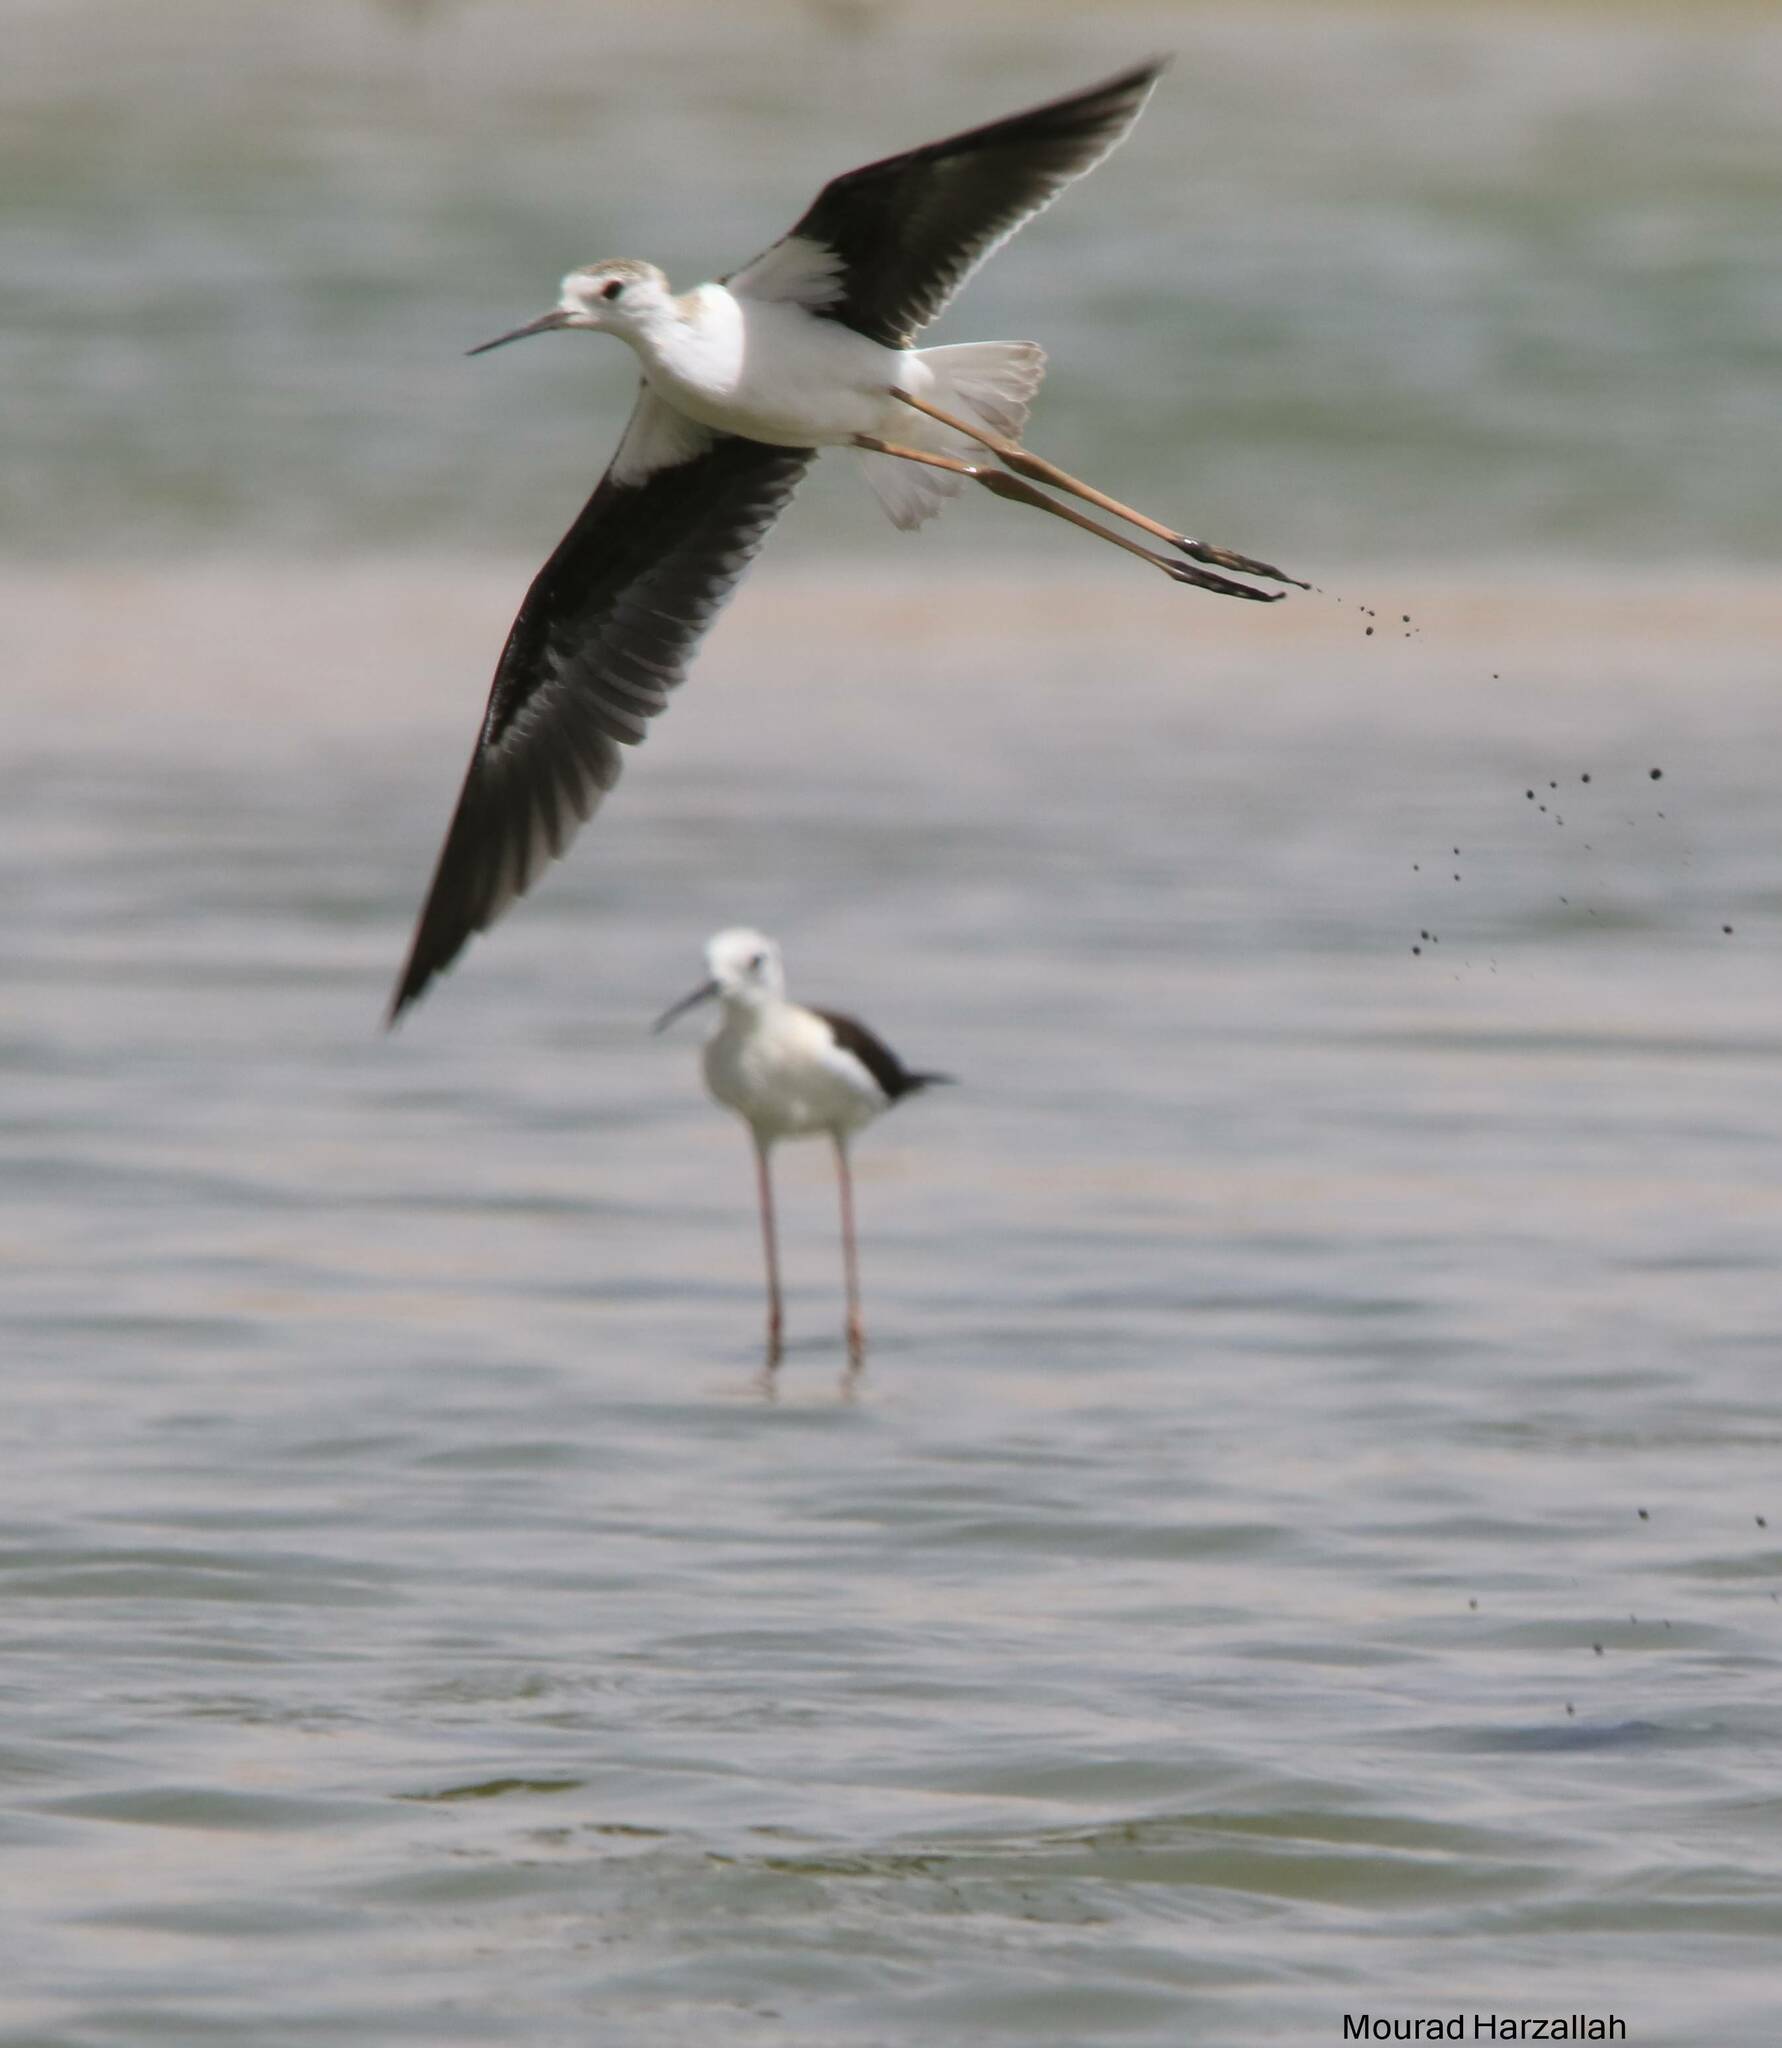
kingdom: Animalia
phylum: Chordata
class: Aves
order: Charadriiformes
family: Recurvirostridae
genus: Himantopus
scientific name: Himantopus himantopus
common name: Black-winged stilt
